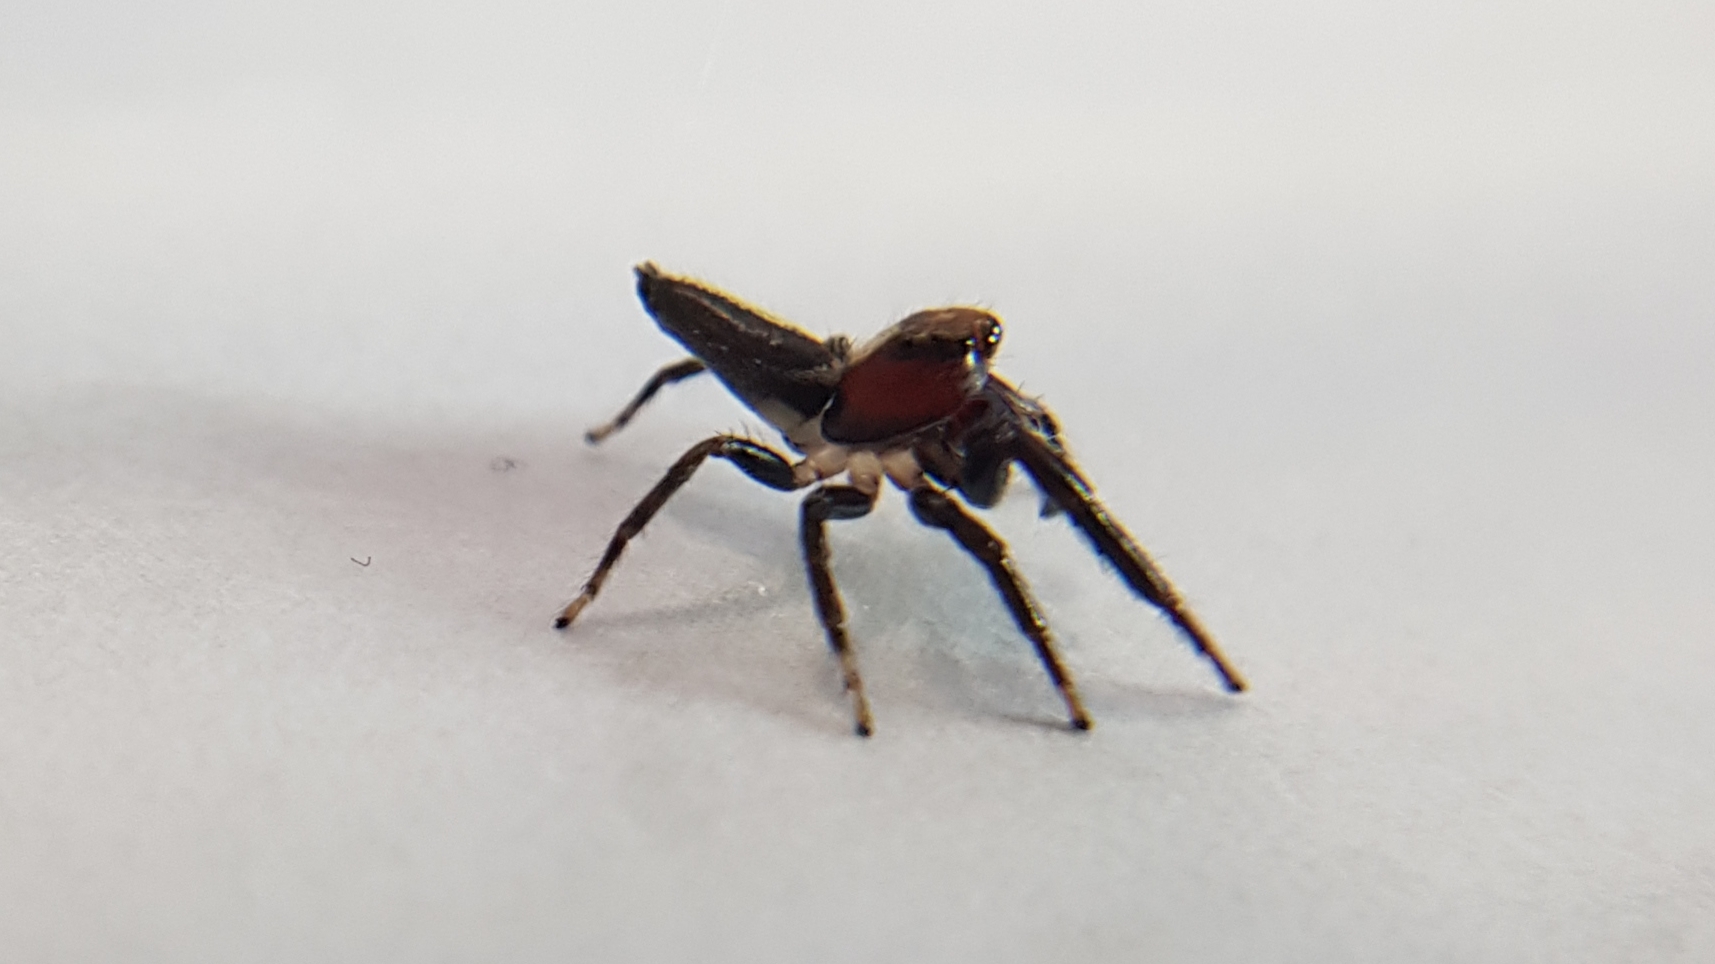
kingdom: Animalia
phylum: Arthropoda
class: Arachnida
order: Araneae
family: Salticidae
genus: Opisthoncus
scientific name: Opisthoncus mordax
